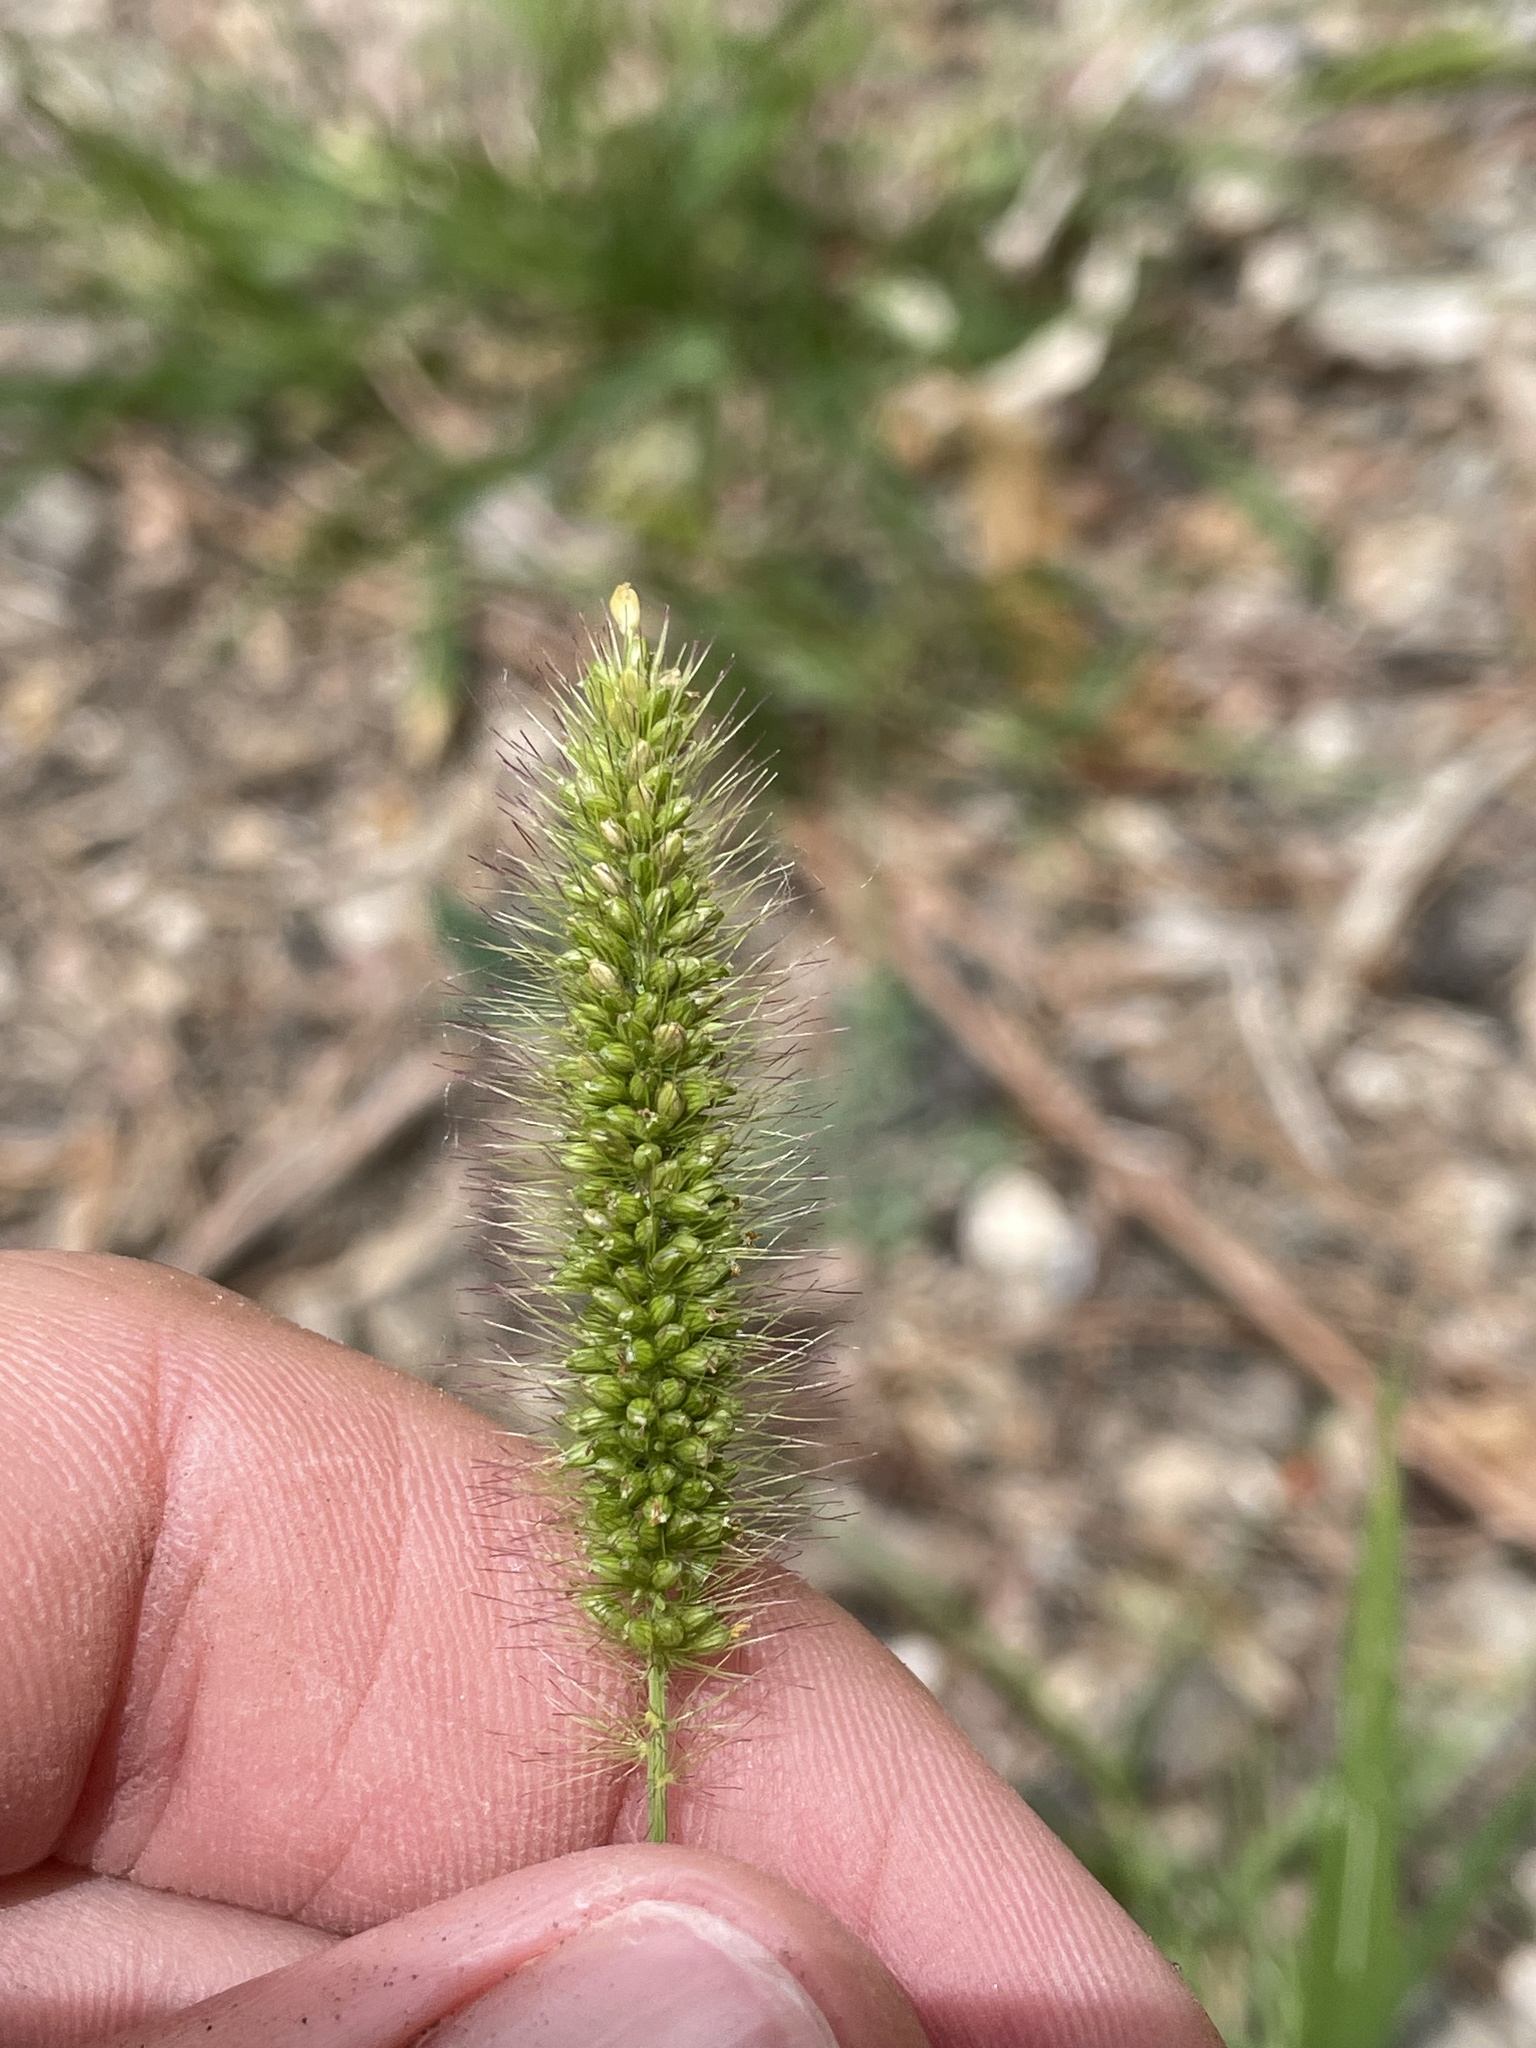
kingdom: Plantae
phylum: Tracheophyta
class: Liliopsida
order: Poales
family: Poaceae
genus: Setaria
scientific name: Setaria viridis
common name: Green bristlegrass
